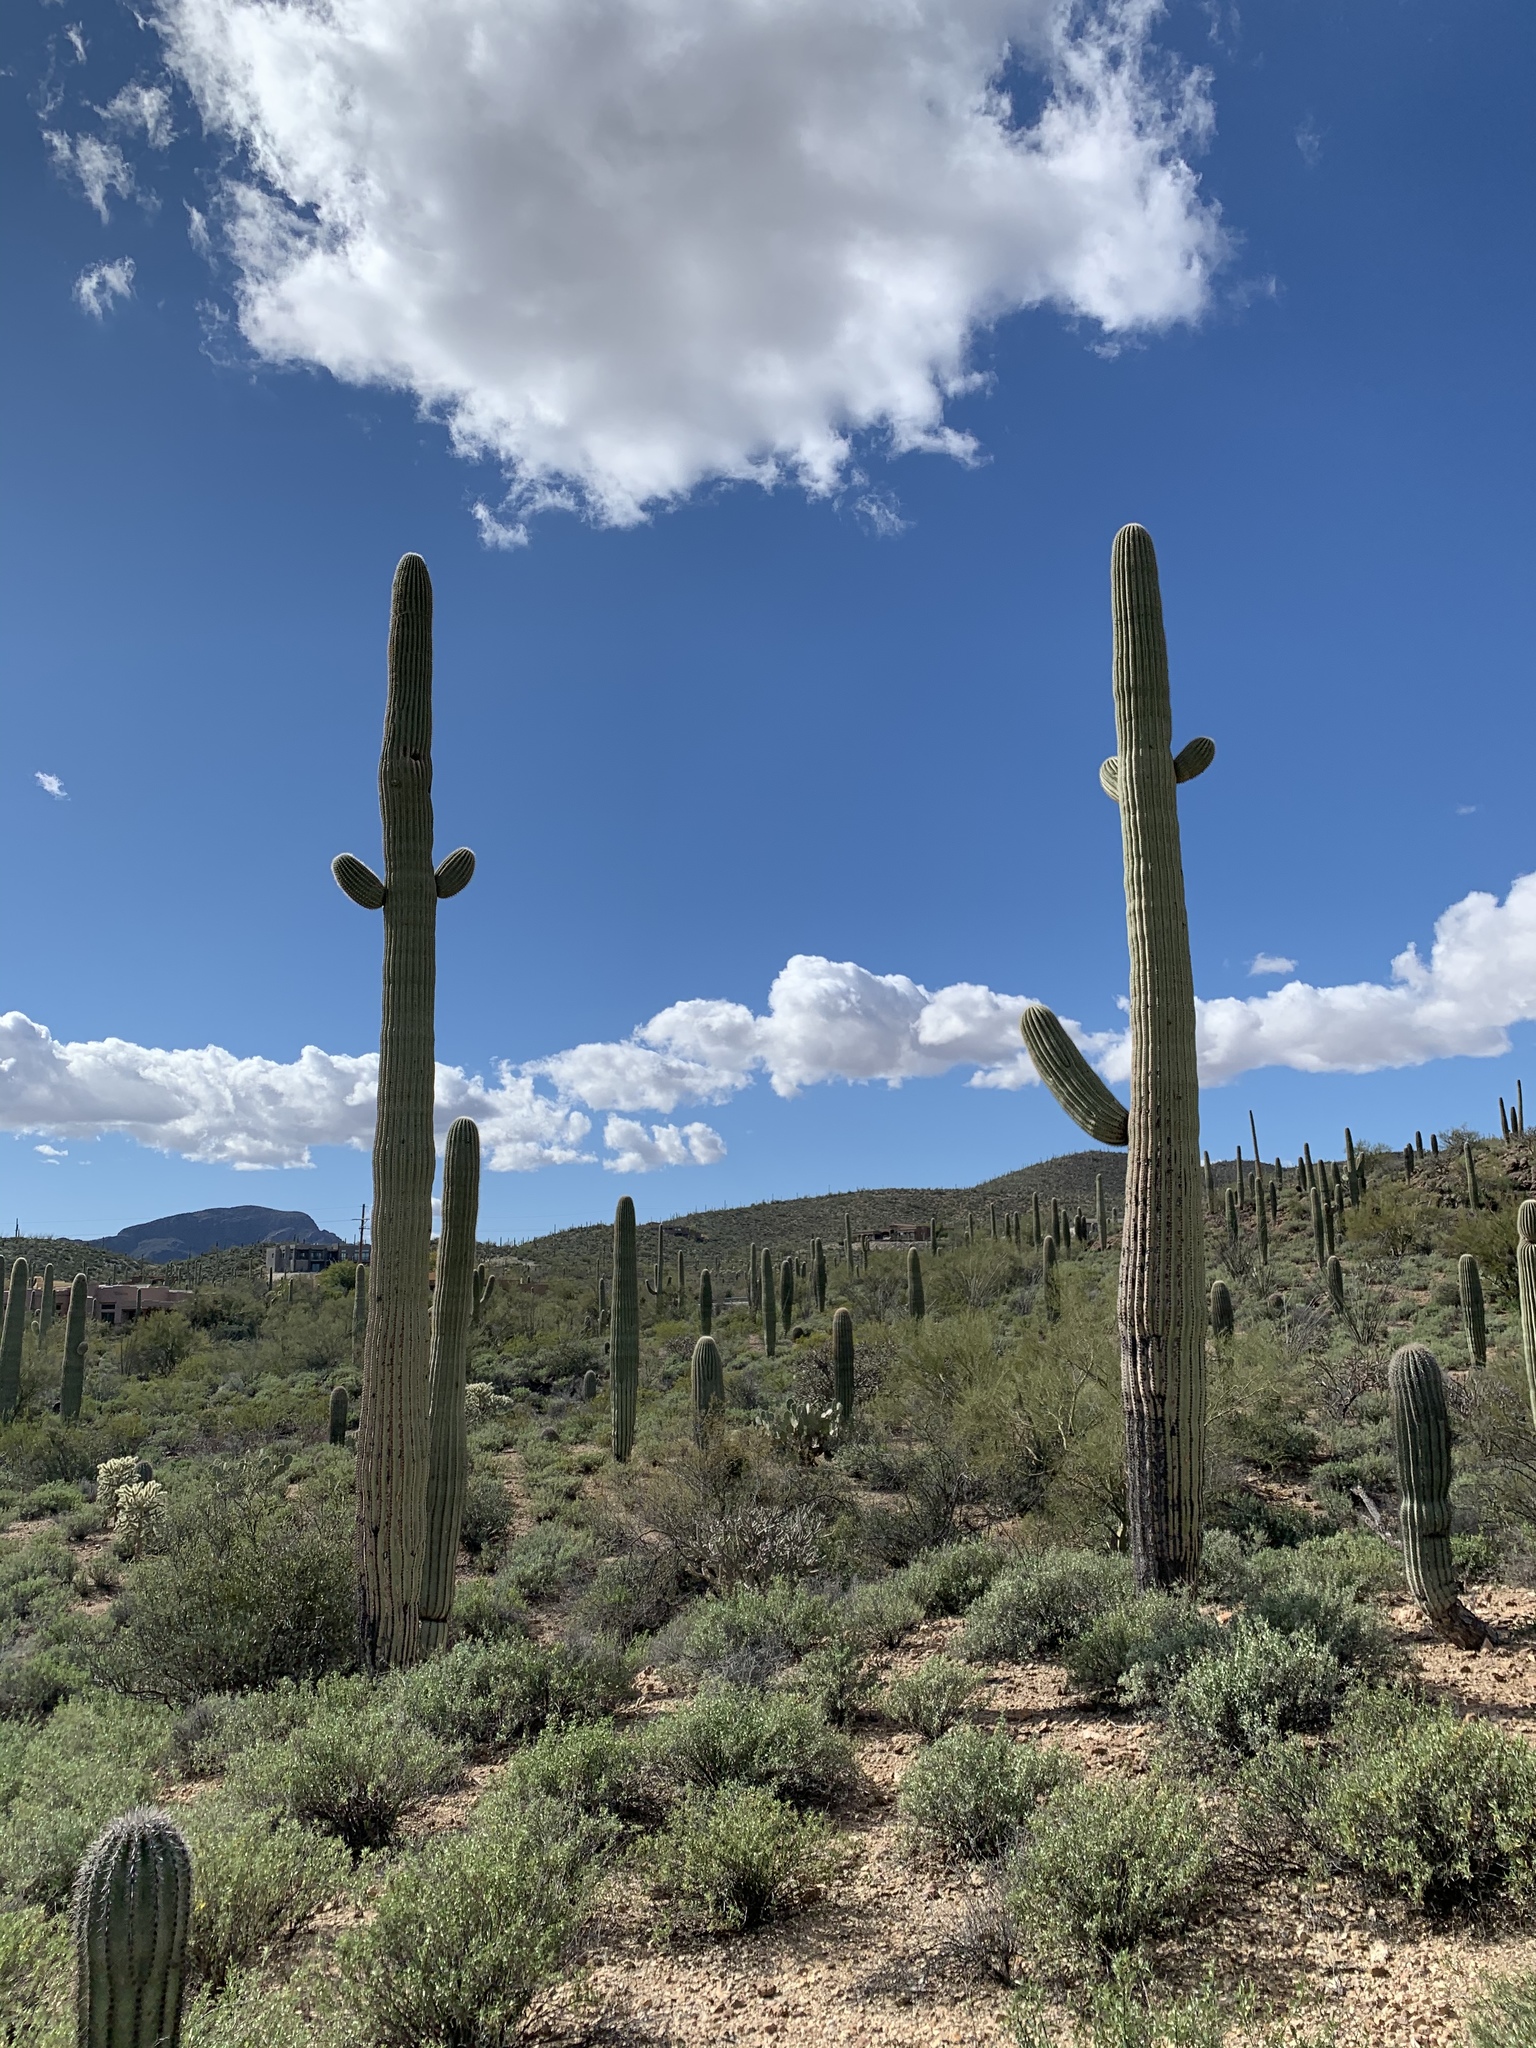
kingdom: Plantae
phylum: Tracheophyta
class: Magnoliopsida
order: Caryophyllales
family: Cactaceae
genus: Carnegiea
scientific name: Carnegiea gigantea
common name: Saguaro
